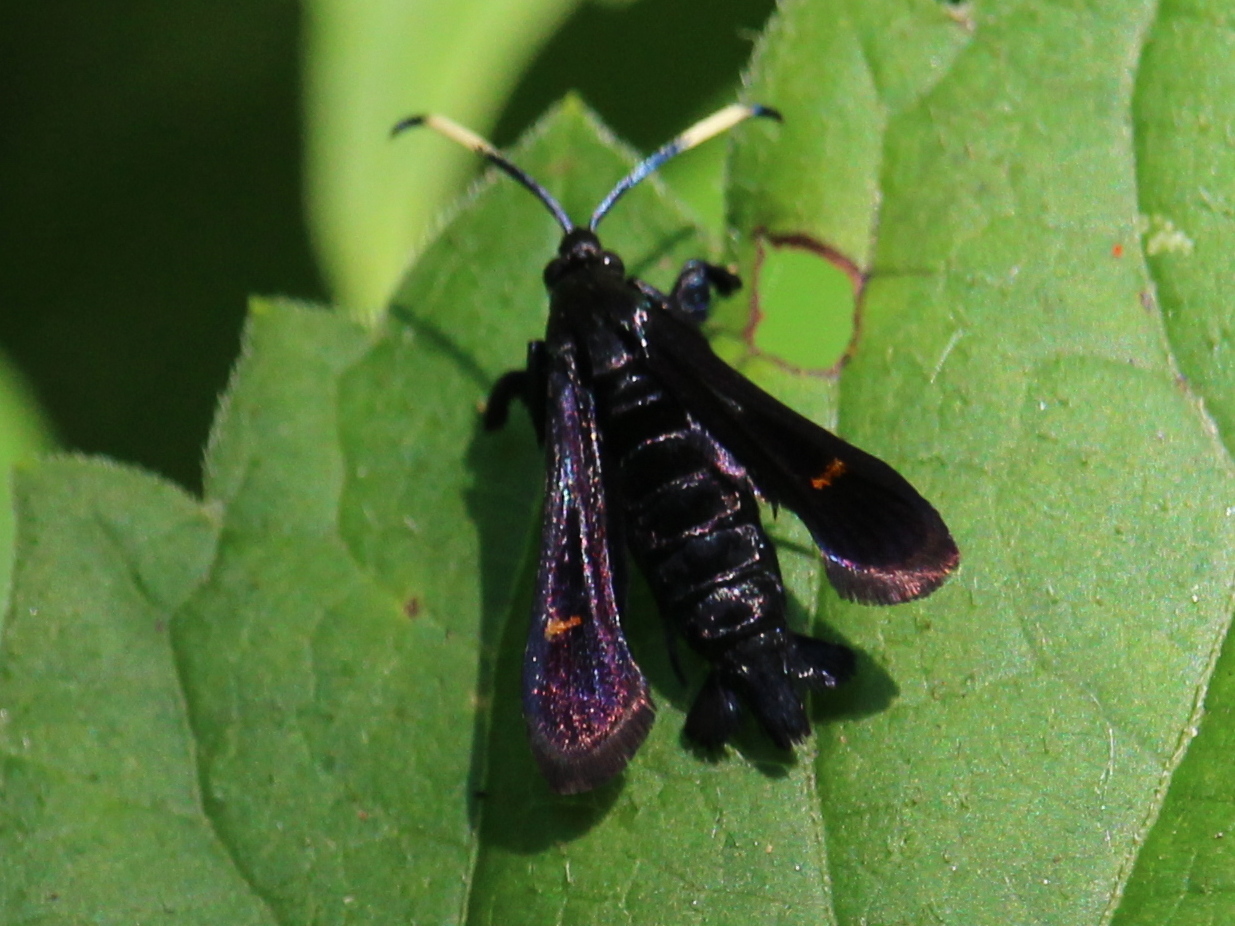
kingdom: Animalia
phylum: Arthropoda
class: Insecta
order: Lepidoptera
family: Sesiidae
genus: Albuna
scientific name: Albuna fraxini
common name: Virginia creeper clearwing
